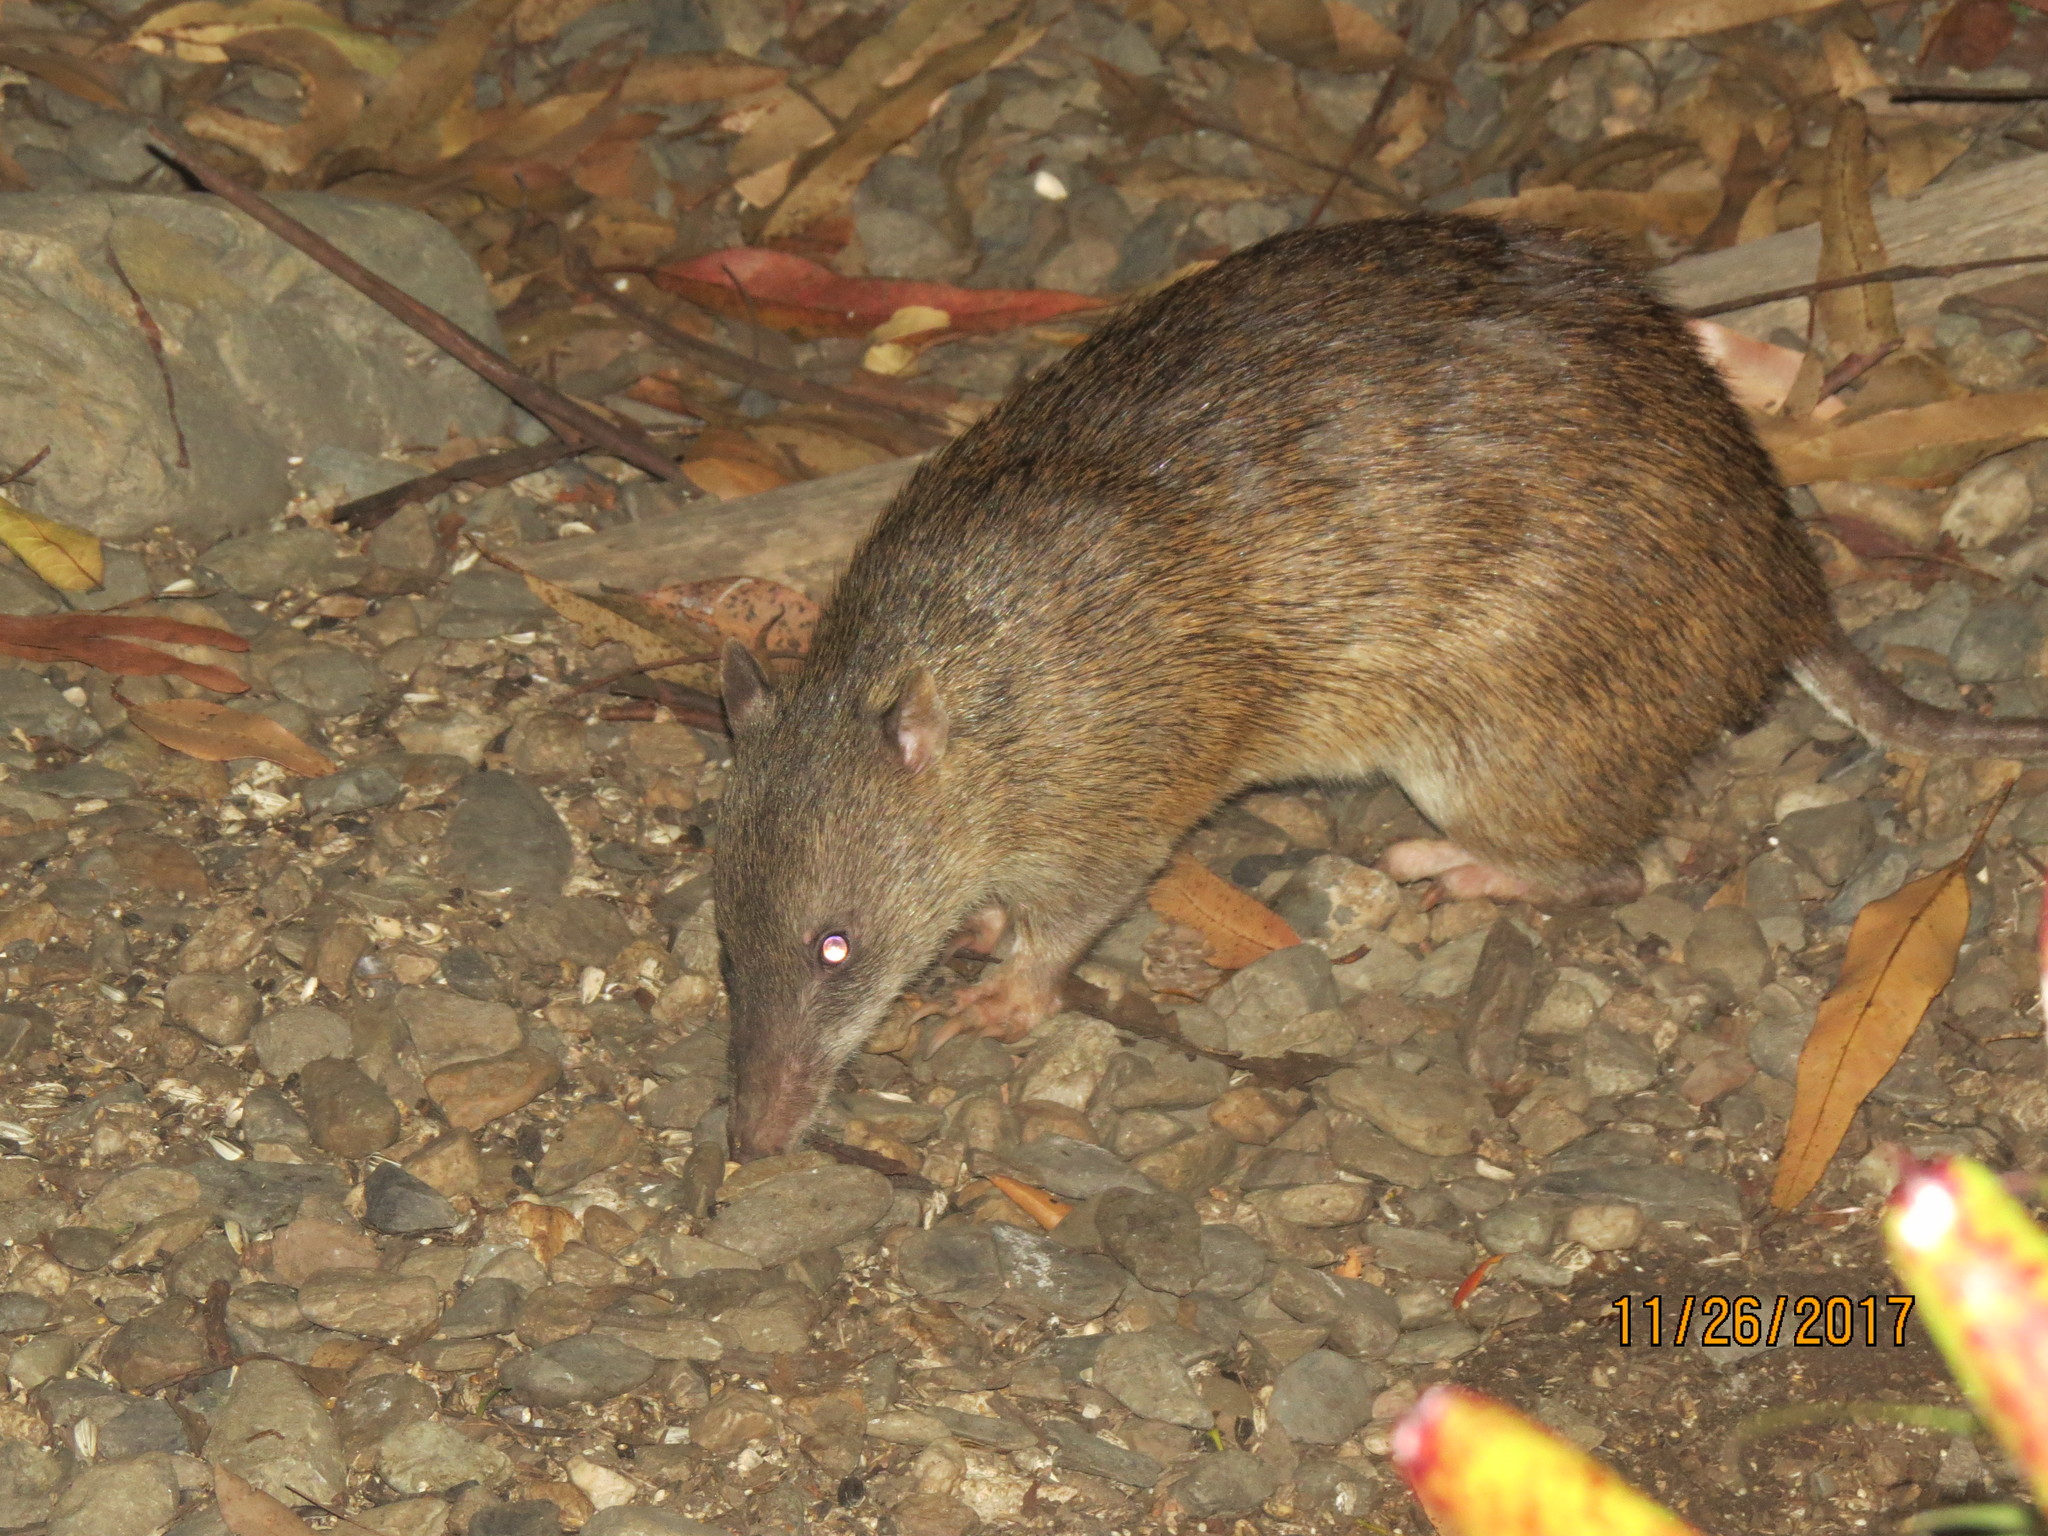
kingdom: Animalia
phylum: Chordata
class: Mammalia
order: Peramelemorphia
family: Peramelidae
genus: Isoodon
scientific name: Isoodon macrourus
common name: Northern brown bandicoot
